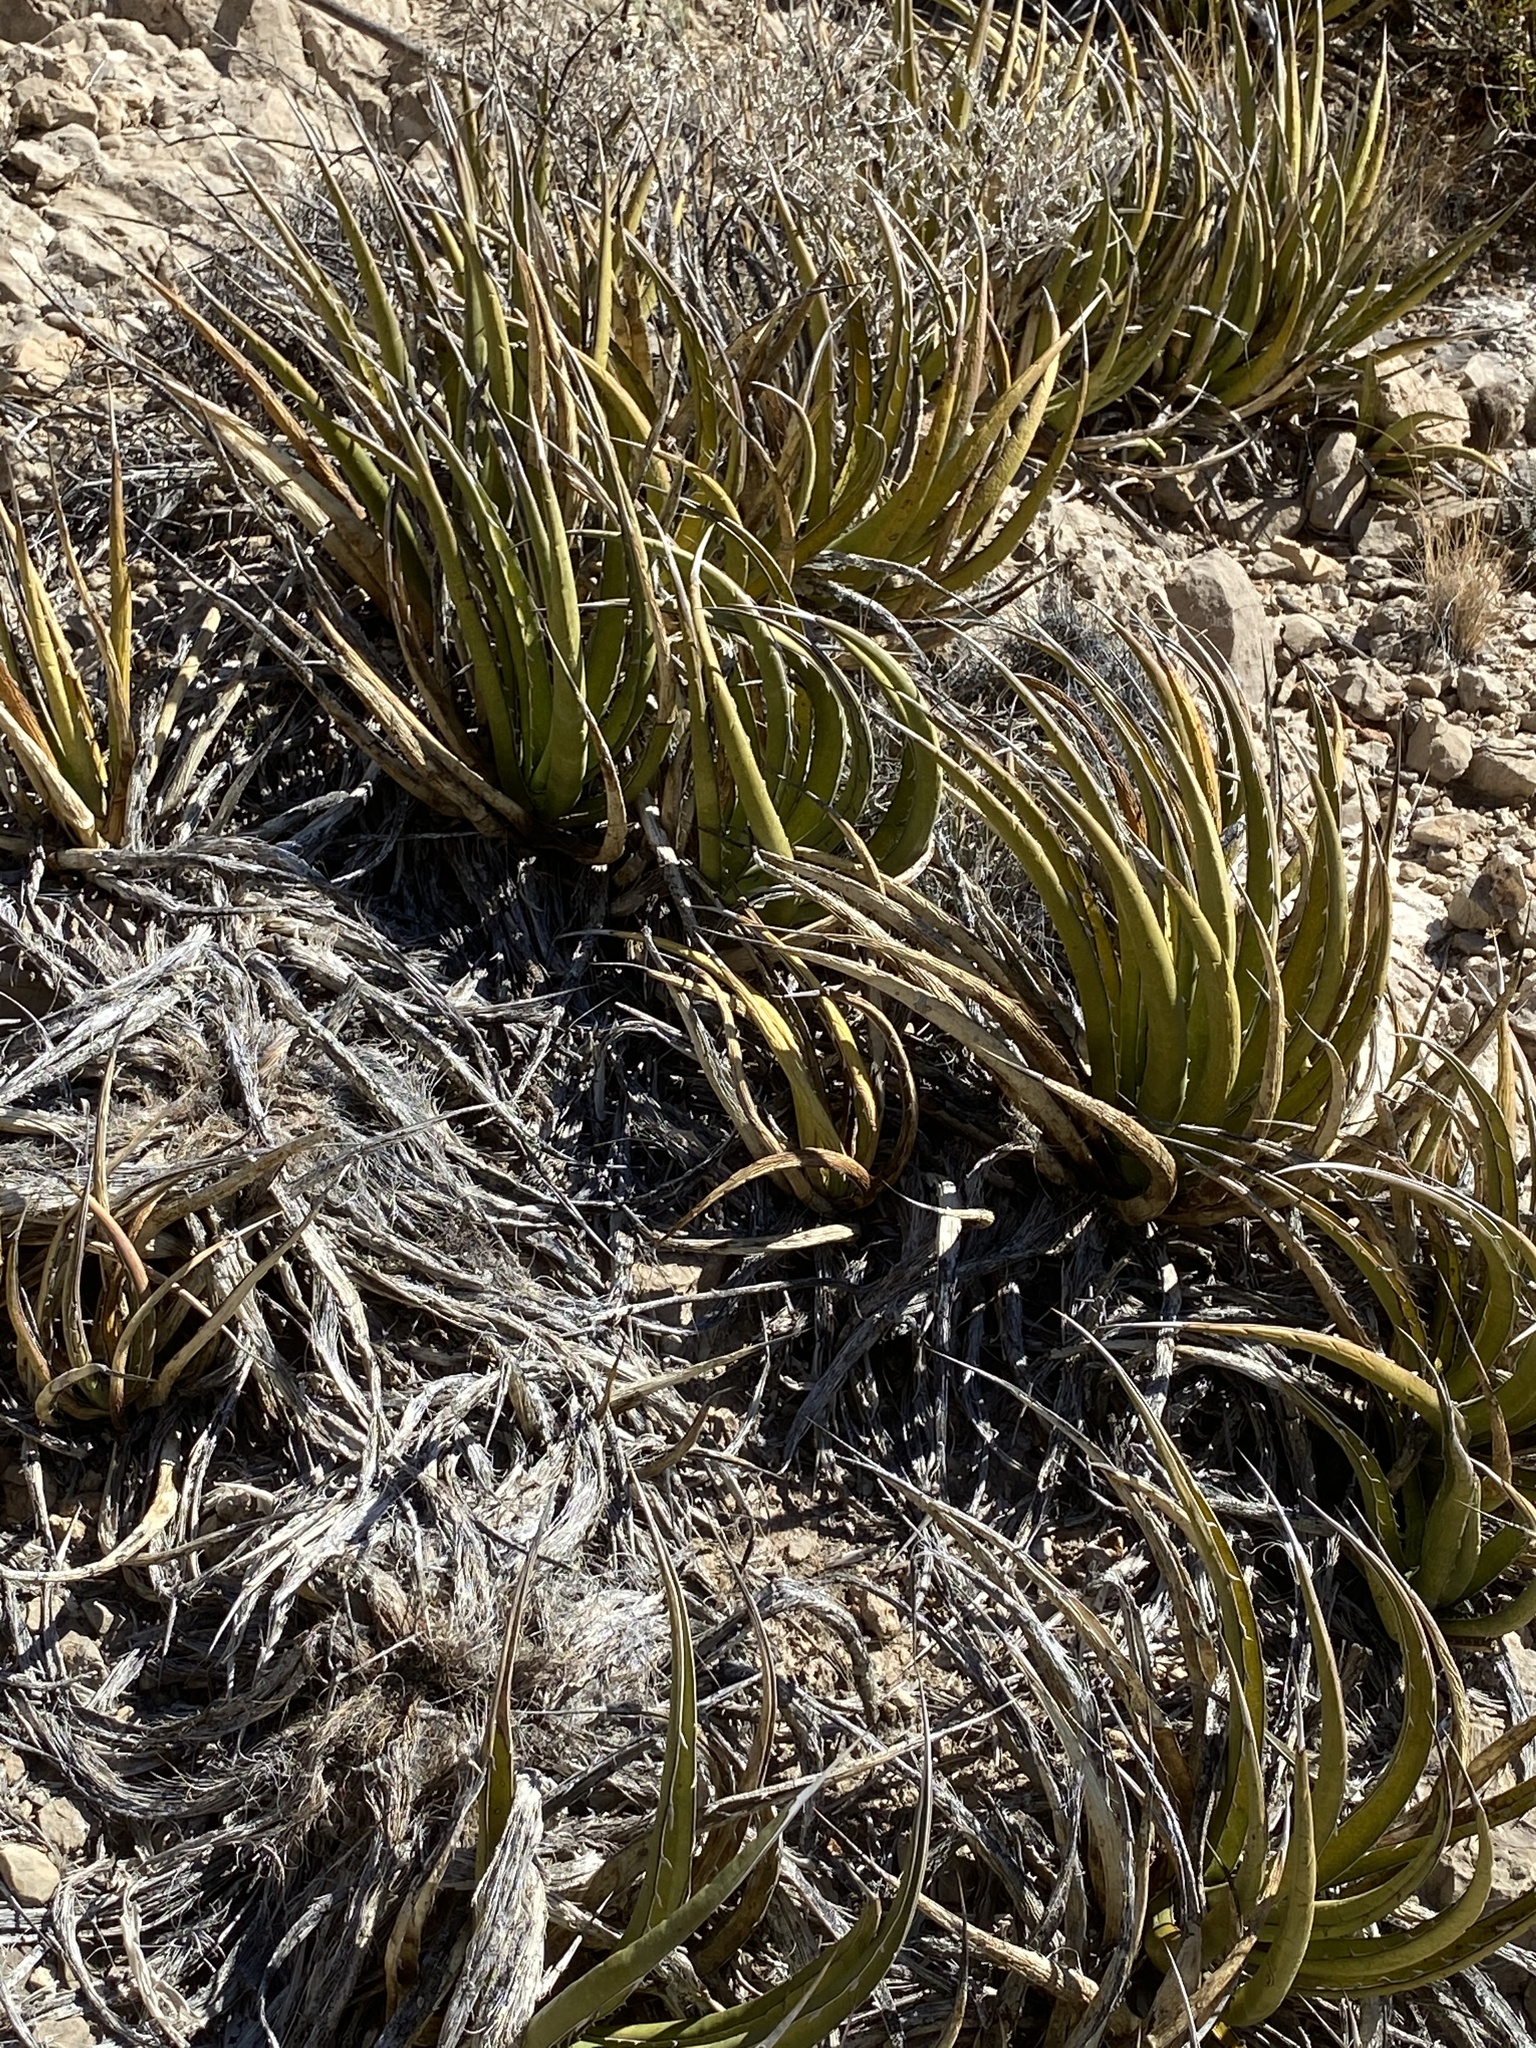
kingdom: Plantae
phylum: Tracheophyta
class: Liliopsida
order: Asparagales
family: Asparagaceae
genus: Agave
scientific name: Agave lechuguilla
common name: Lecheguilla agave
